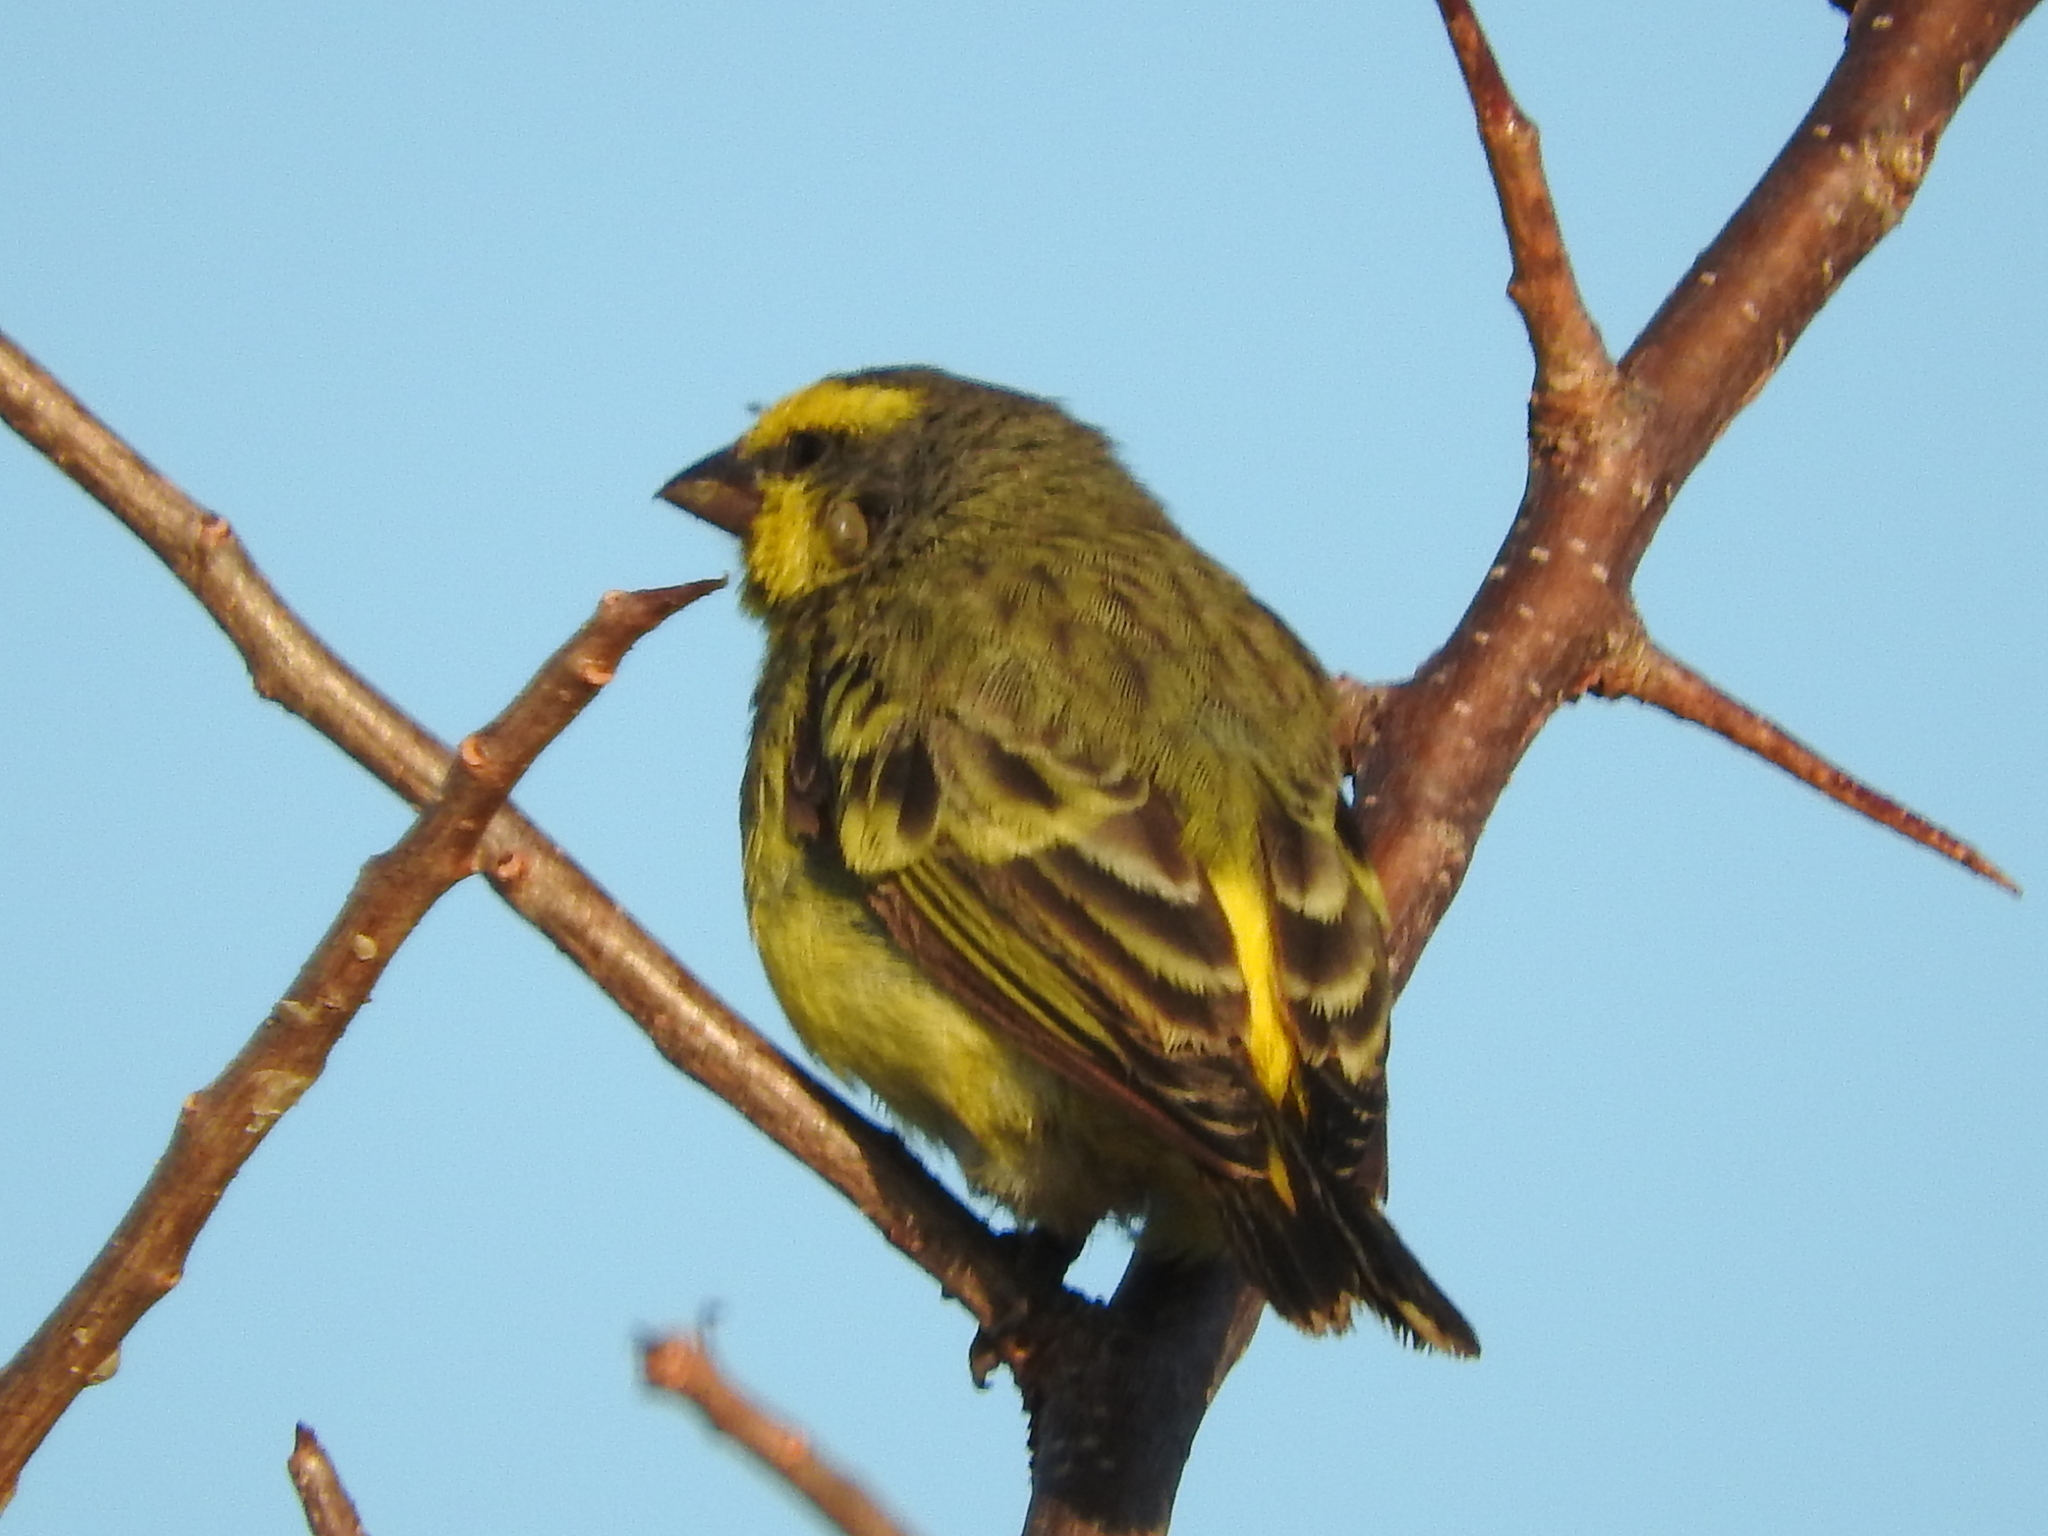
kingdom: Animalia
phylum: Chordata
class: Aves
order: Passeriformes
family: Fringillidae
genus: Crithagra
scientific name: Crithagra mozambica
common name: Yellow-fronted canary
